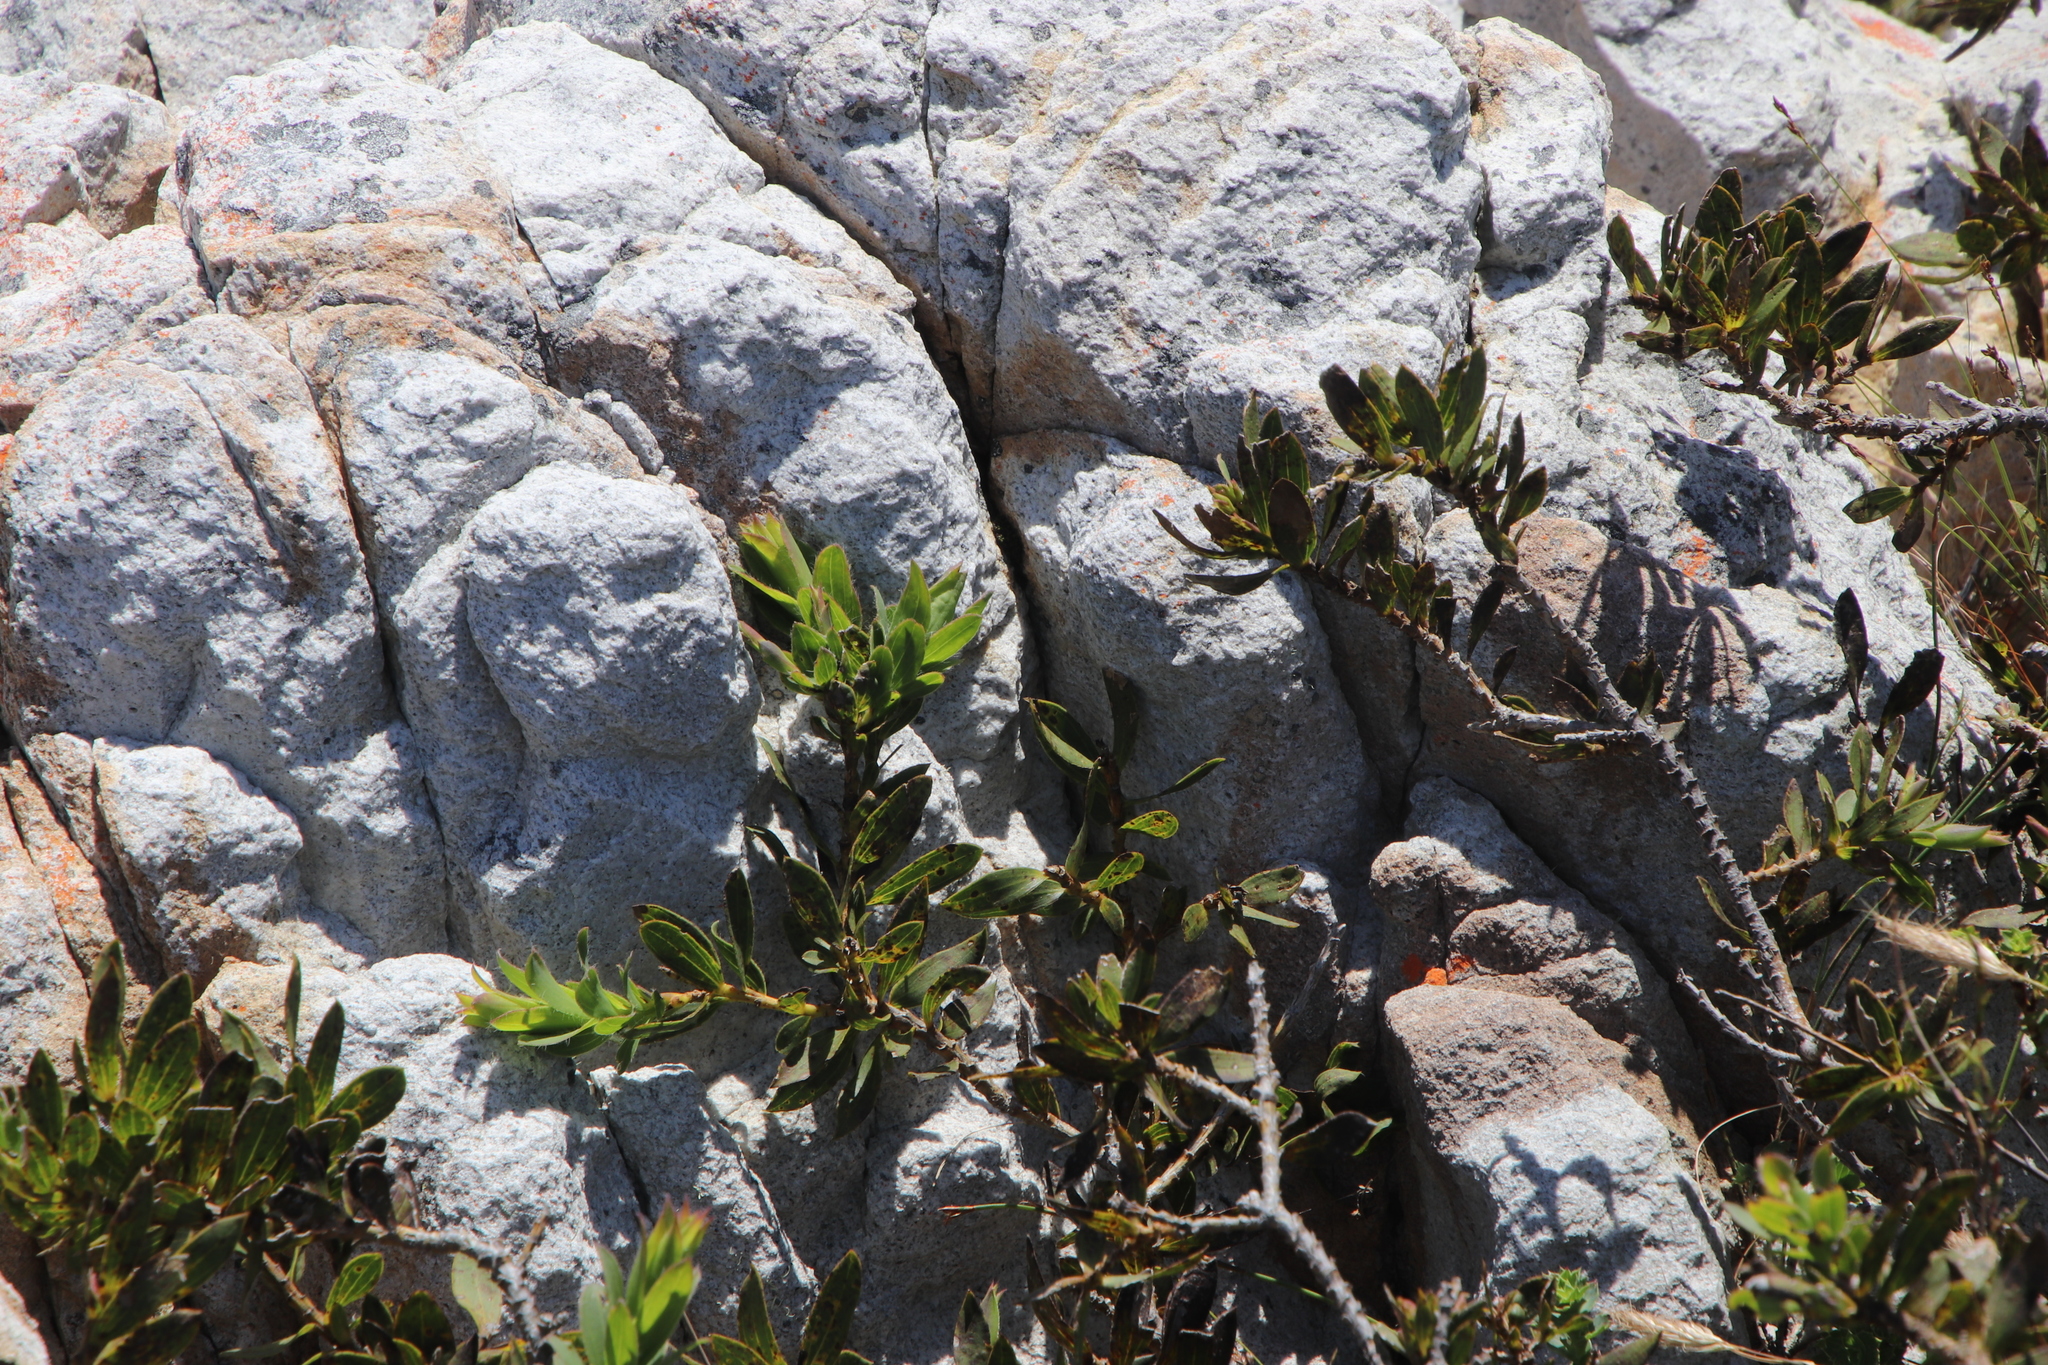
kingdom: Plantae
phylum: Tracheophyta
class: Magnoliopsida
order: Fabales
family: Fabaceae
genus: Liparia
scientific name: Liparia splendens
